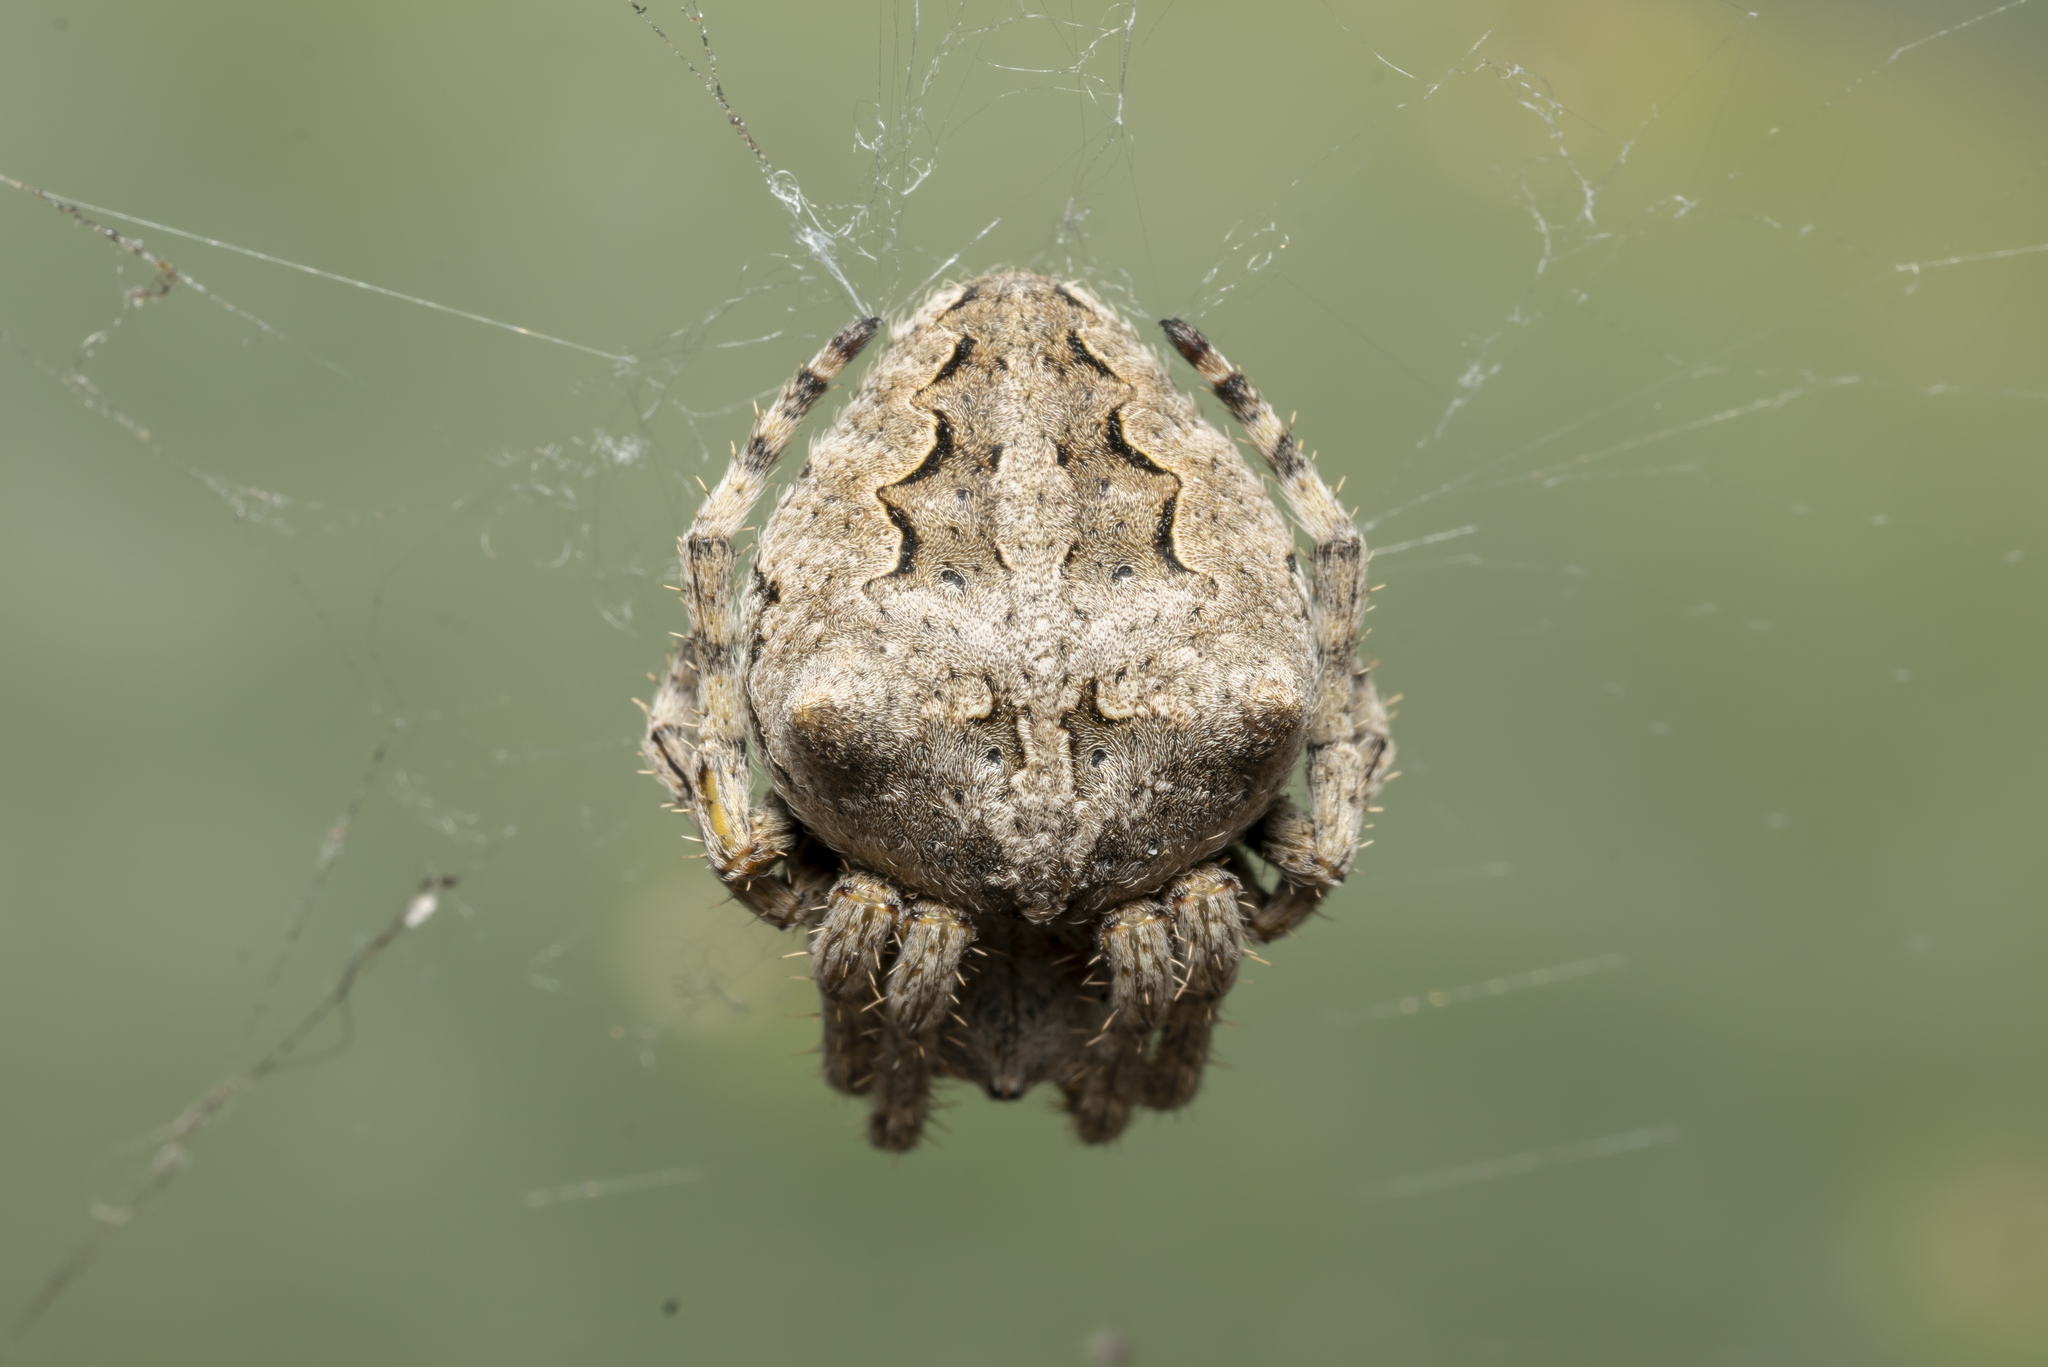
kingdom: Animalia
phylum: Arthropoda
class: Arachnida
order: Araneae
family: Araneidae
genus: Araneus
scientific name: Araneus angulatus
